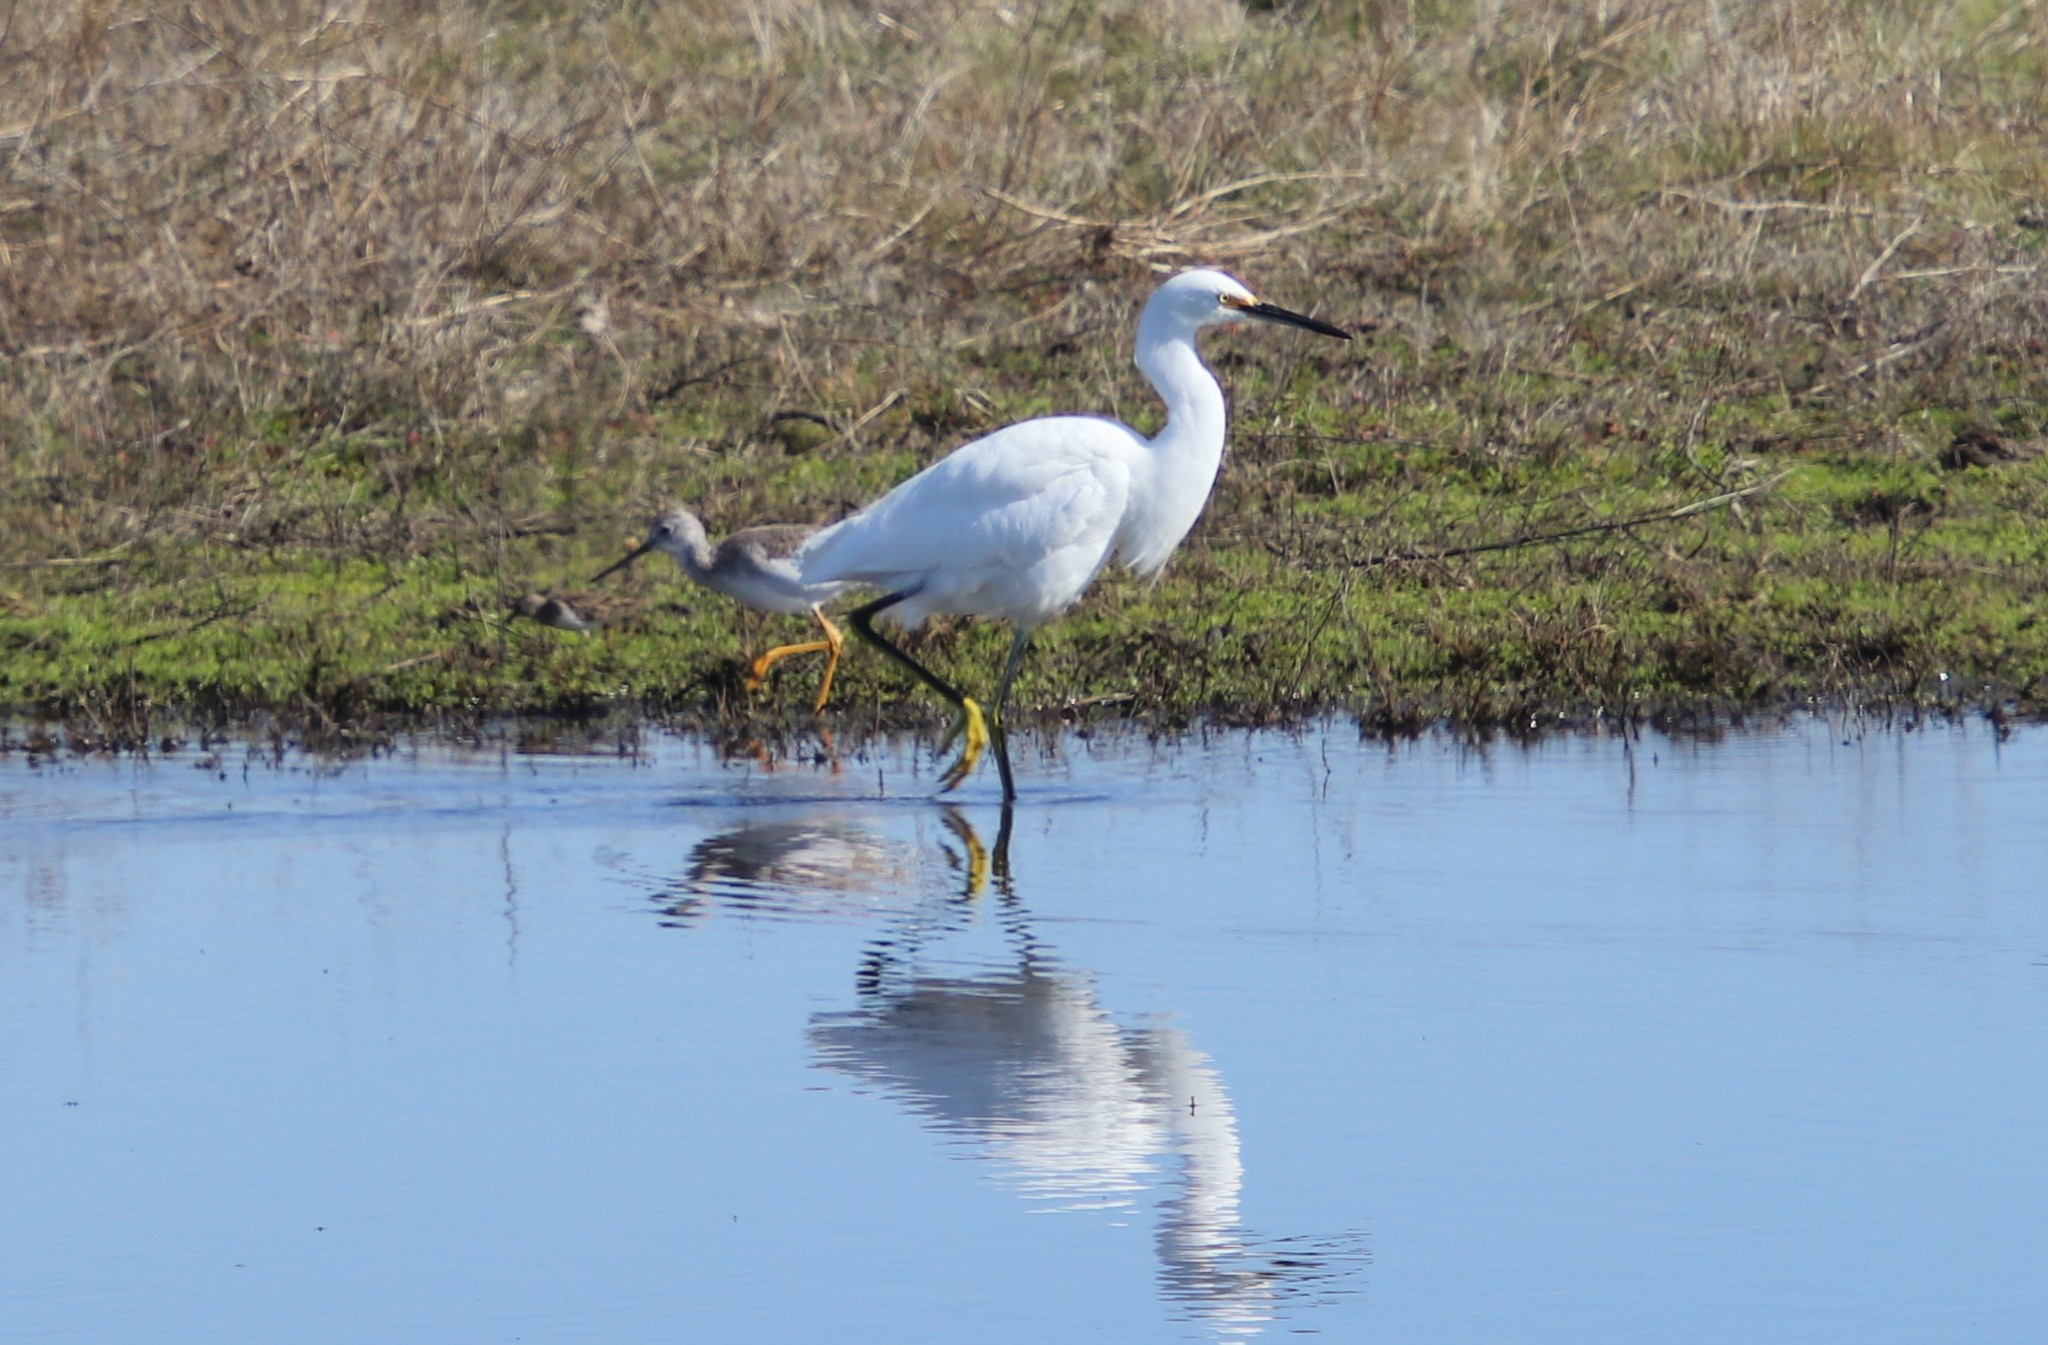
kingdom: Animalia
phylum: Chordata
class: Aves
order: Pelecaniformes
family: Ardeidae
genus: Egretta
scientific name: Egretta thula
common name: Snowy egret
